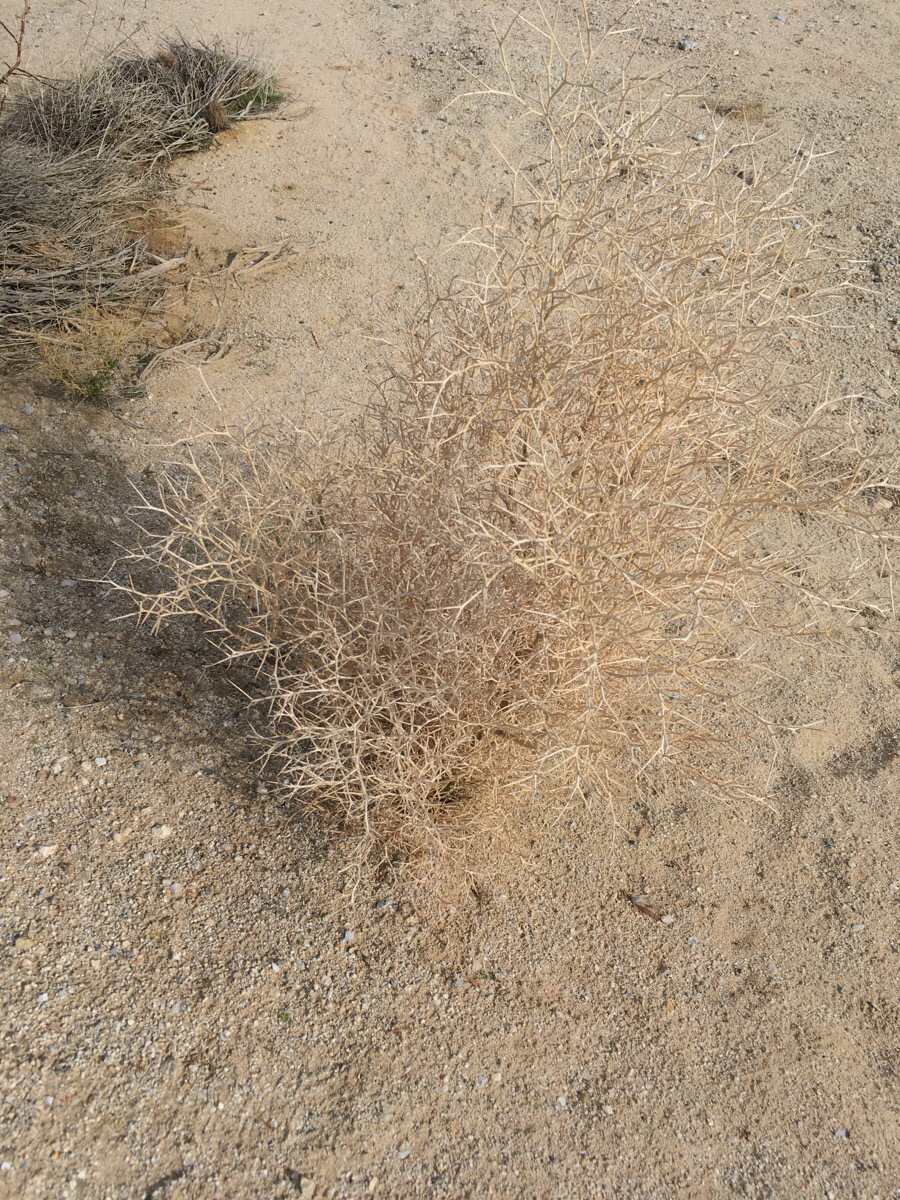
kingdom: Plantae
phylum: Tracheophyta
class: Magnoliopsida
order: Fabales
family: Fabaceae
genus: Psorothamnus
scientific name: Psorothamnus spinosus
